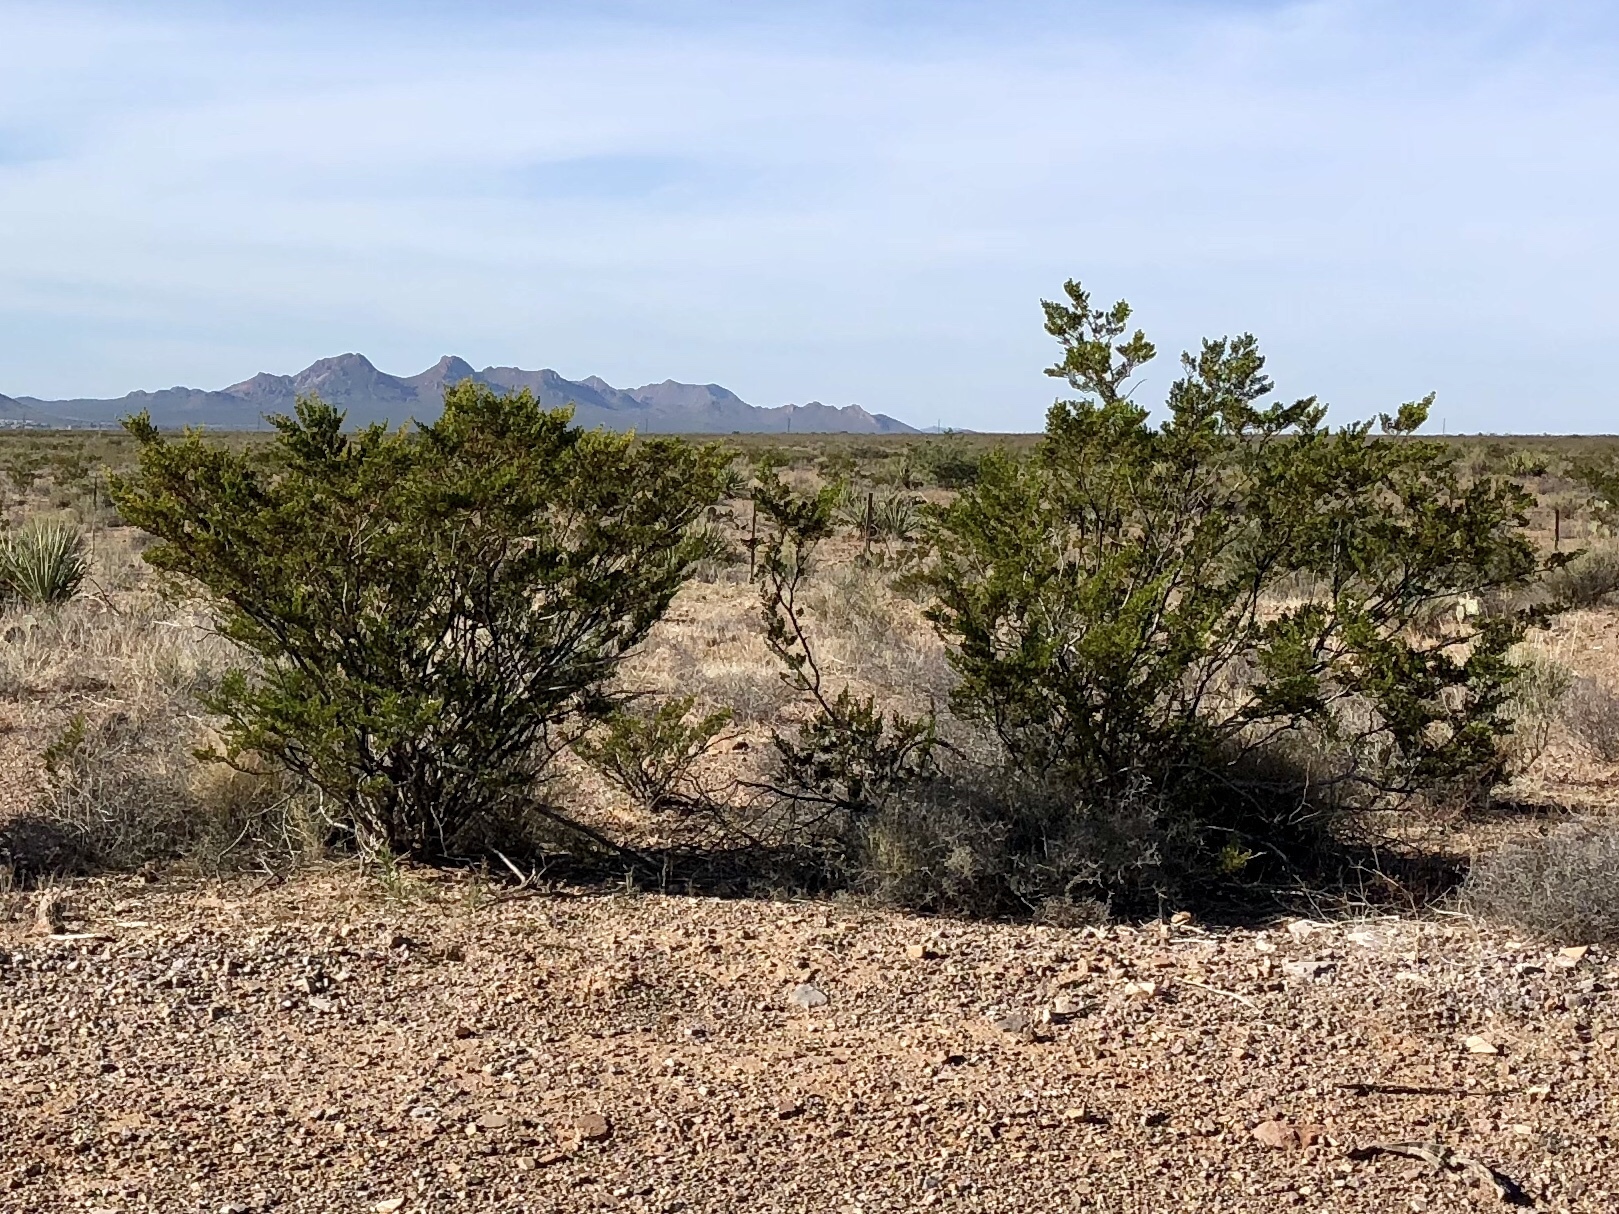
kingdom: Plantae
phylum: Tracheophyta
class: Magnoliopsida
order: Zygophyllales
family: Zygophyllaceae
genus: Larrea
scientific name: Larrea tridentata
